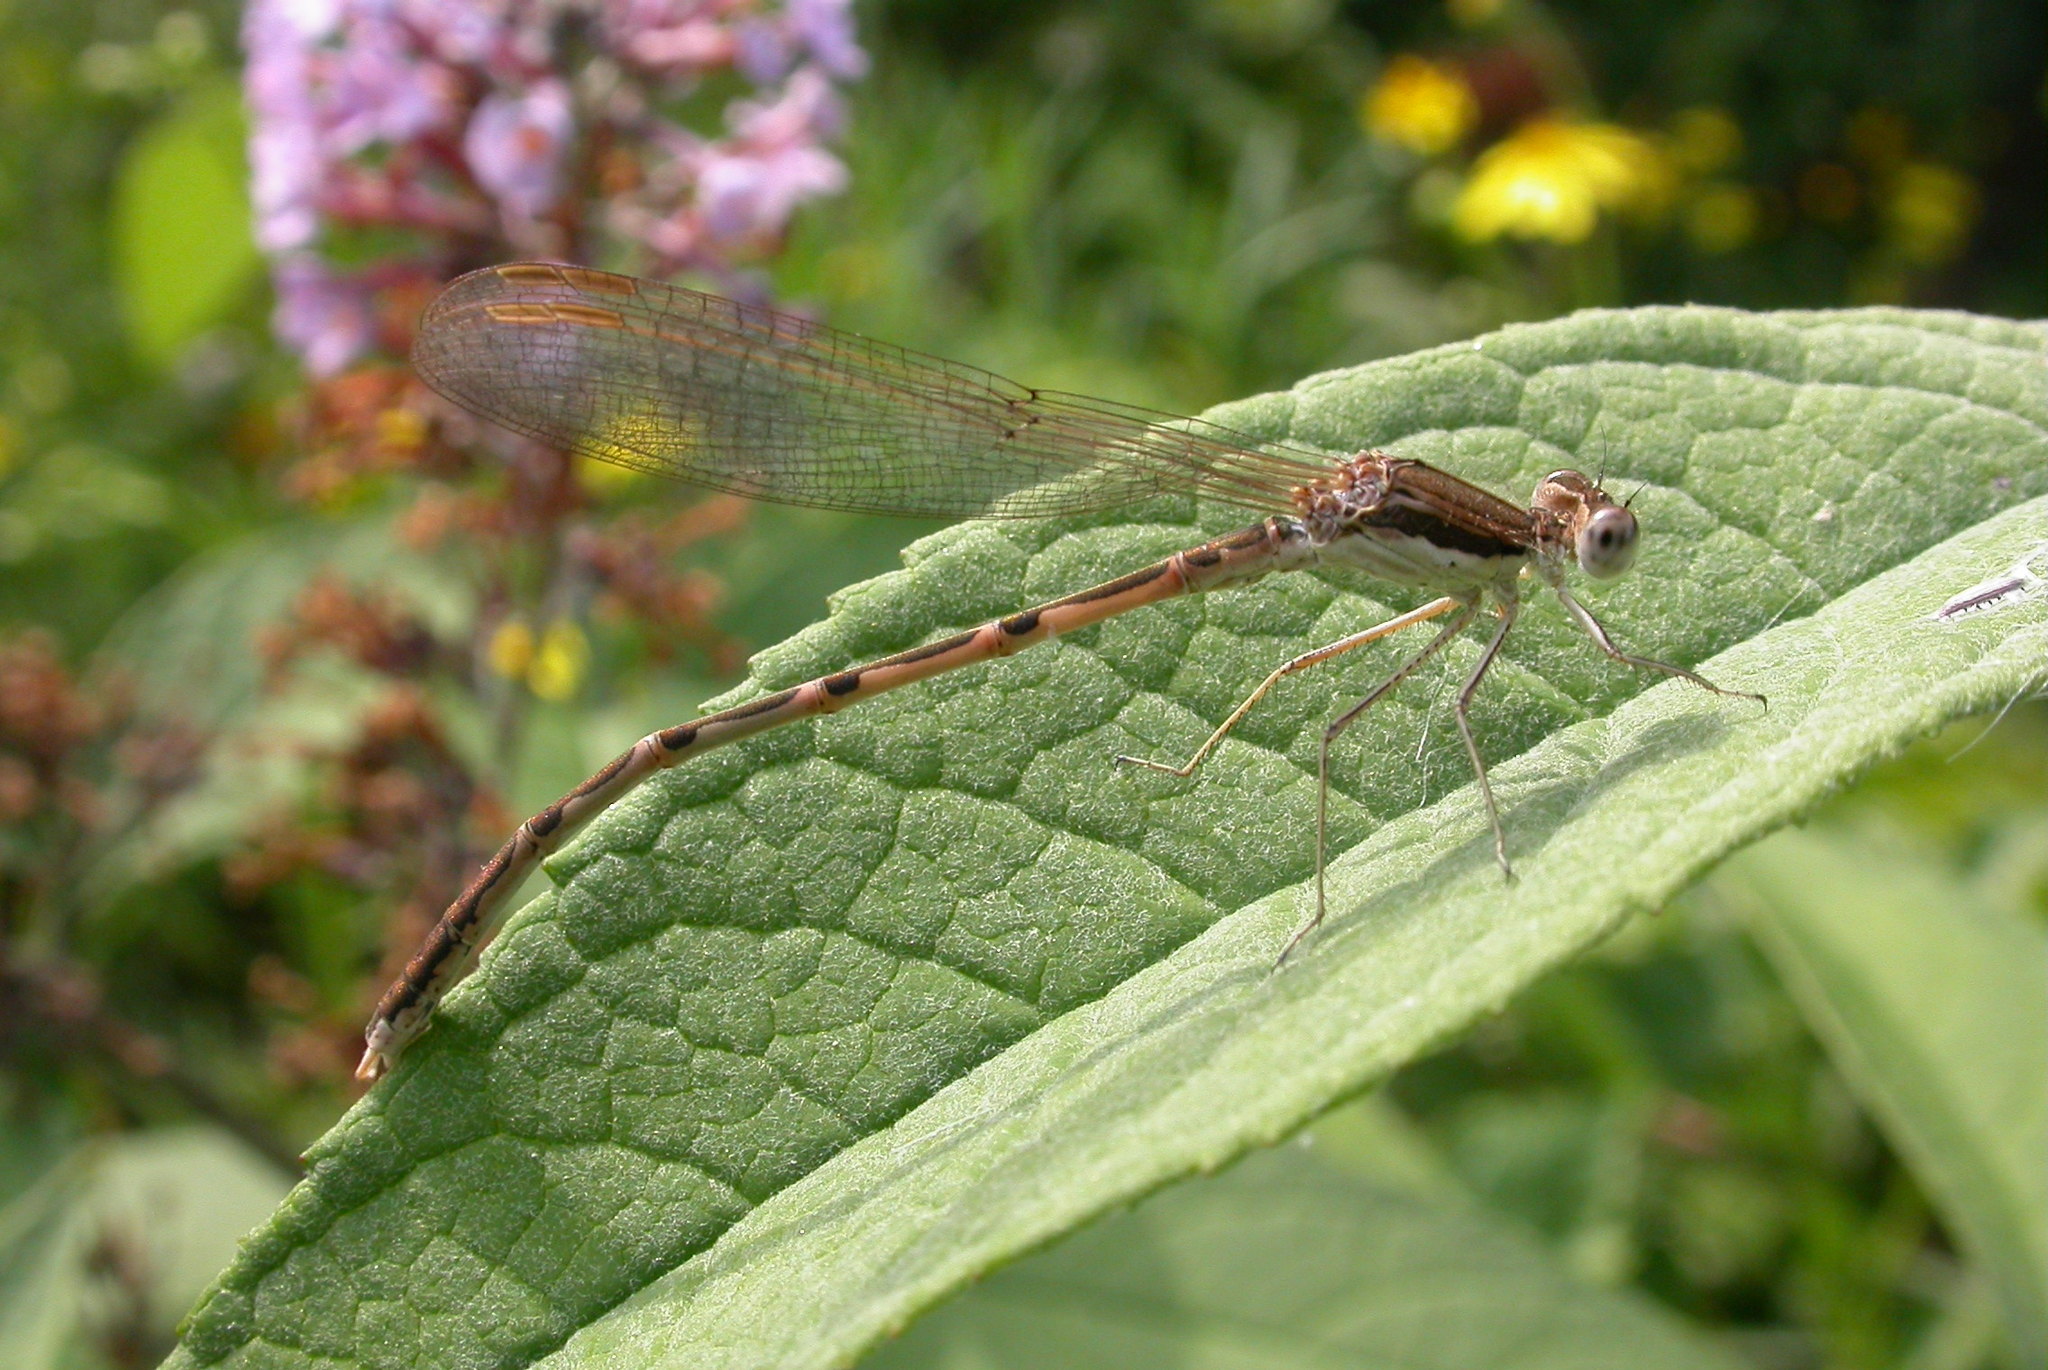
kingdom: Animalia
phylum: Arthropoda
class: Insecta
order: Odonata
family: Lestidae
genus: Sympecma
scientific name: Sympecma fusca
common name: Common winter damsel
